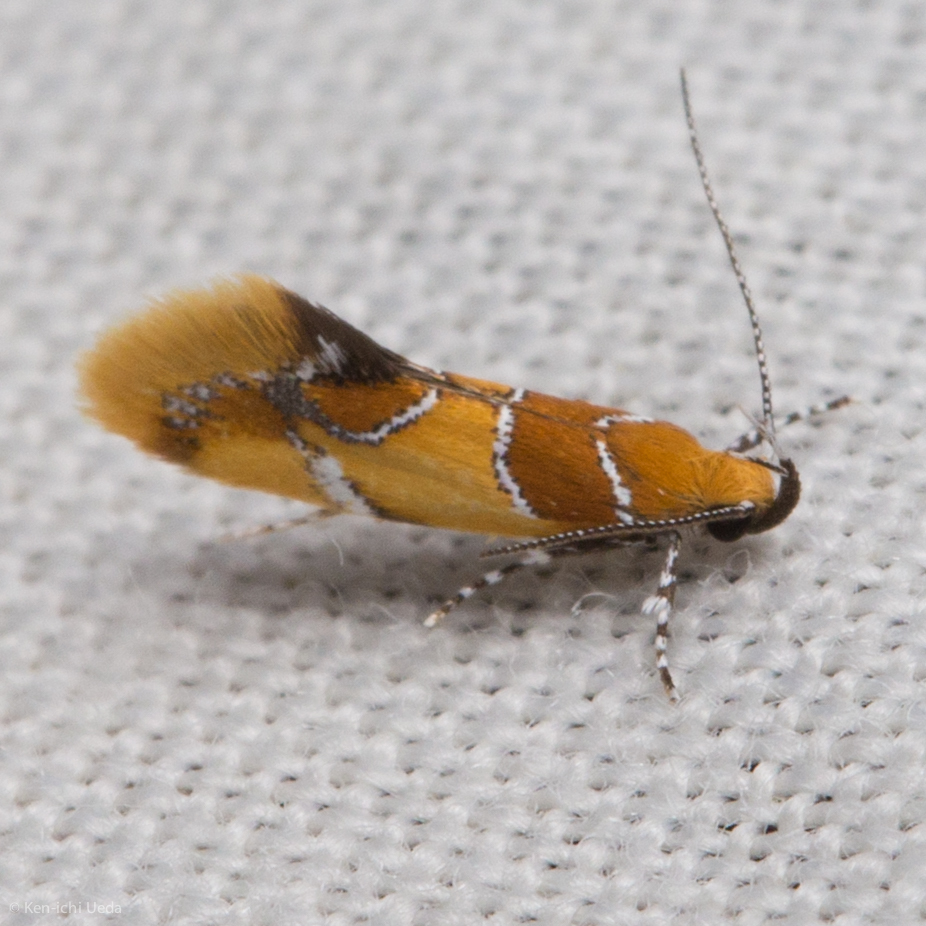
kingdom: Animalia
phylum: Arthropoda
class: Insecta
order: Lepidoptera
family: Oecophoridae
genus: Callima
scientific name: Callima argenticinctella
